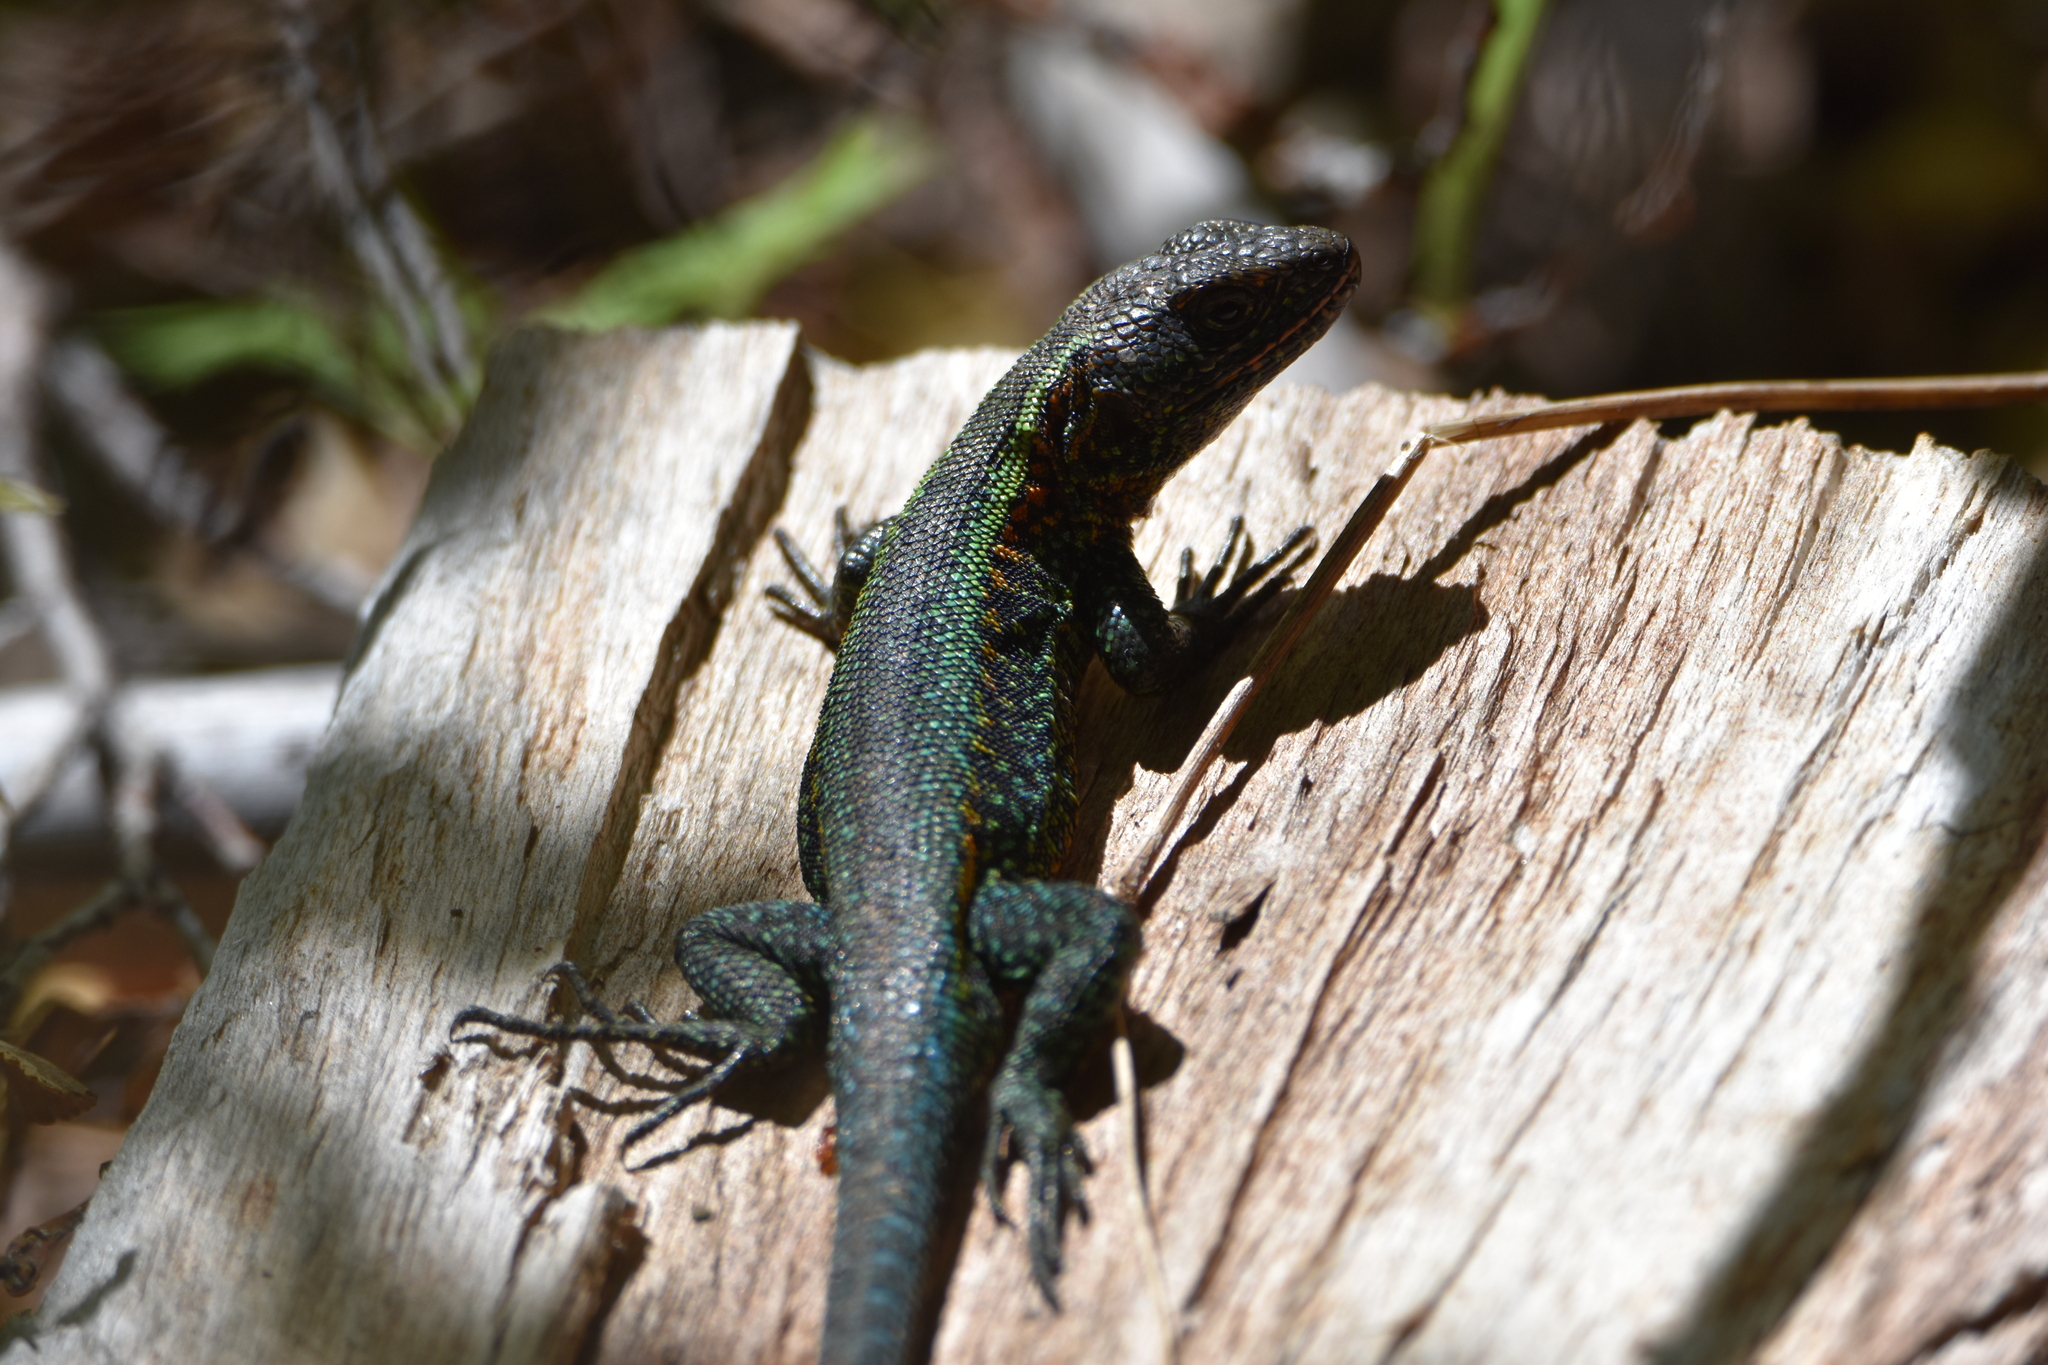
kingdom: Animalia
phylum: Chordata
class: Squamata
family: Liolaemidae
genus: Liolaemus
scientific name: Liolaemus pictus
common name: Painted tree iguana
